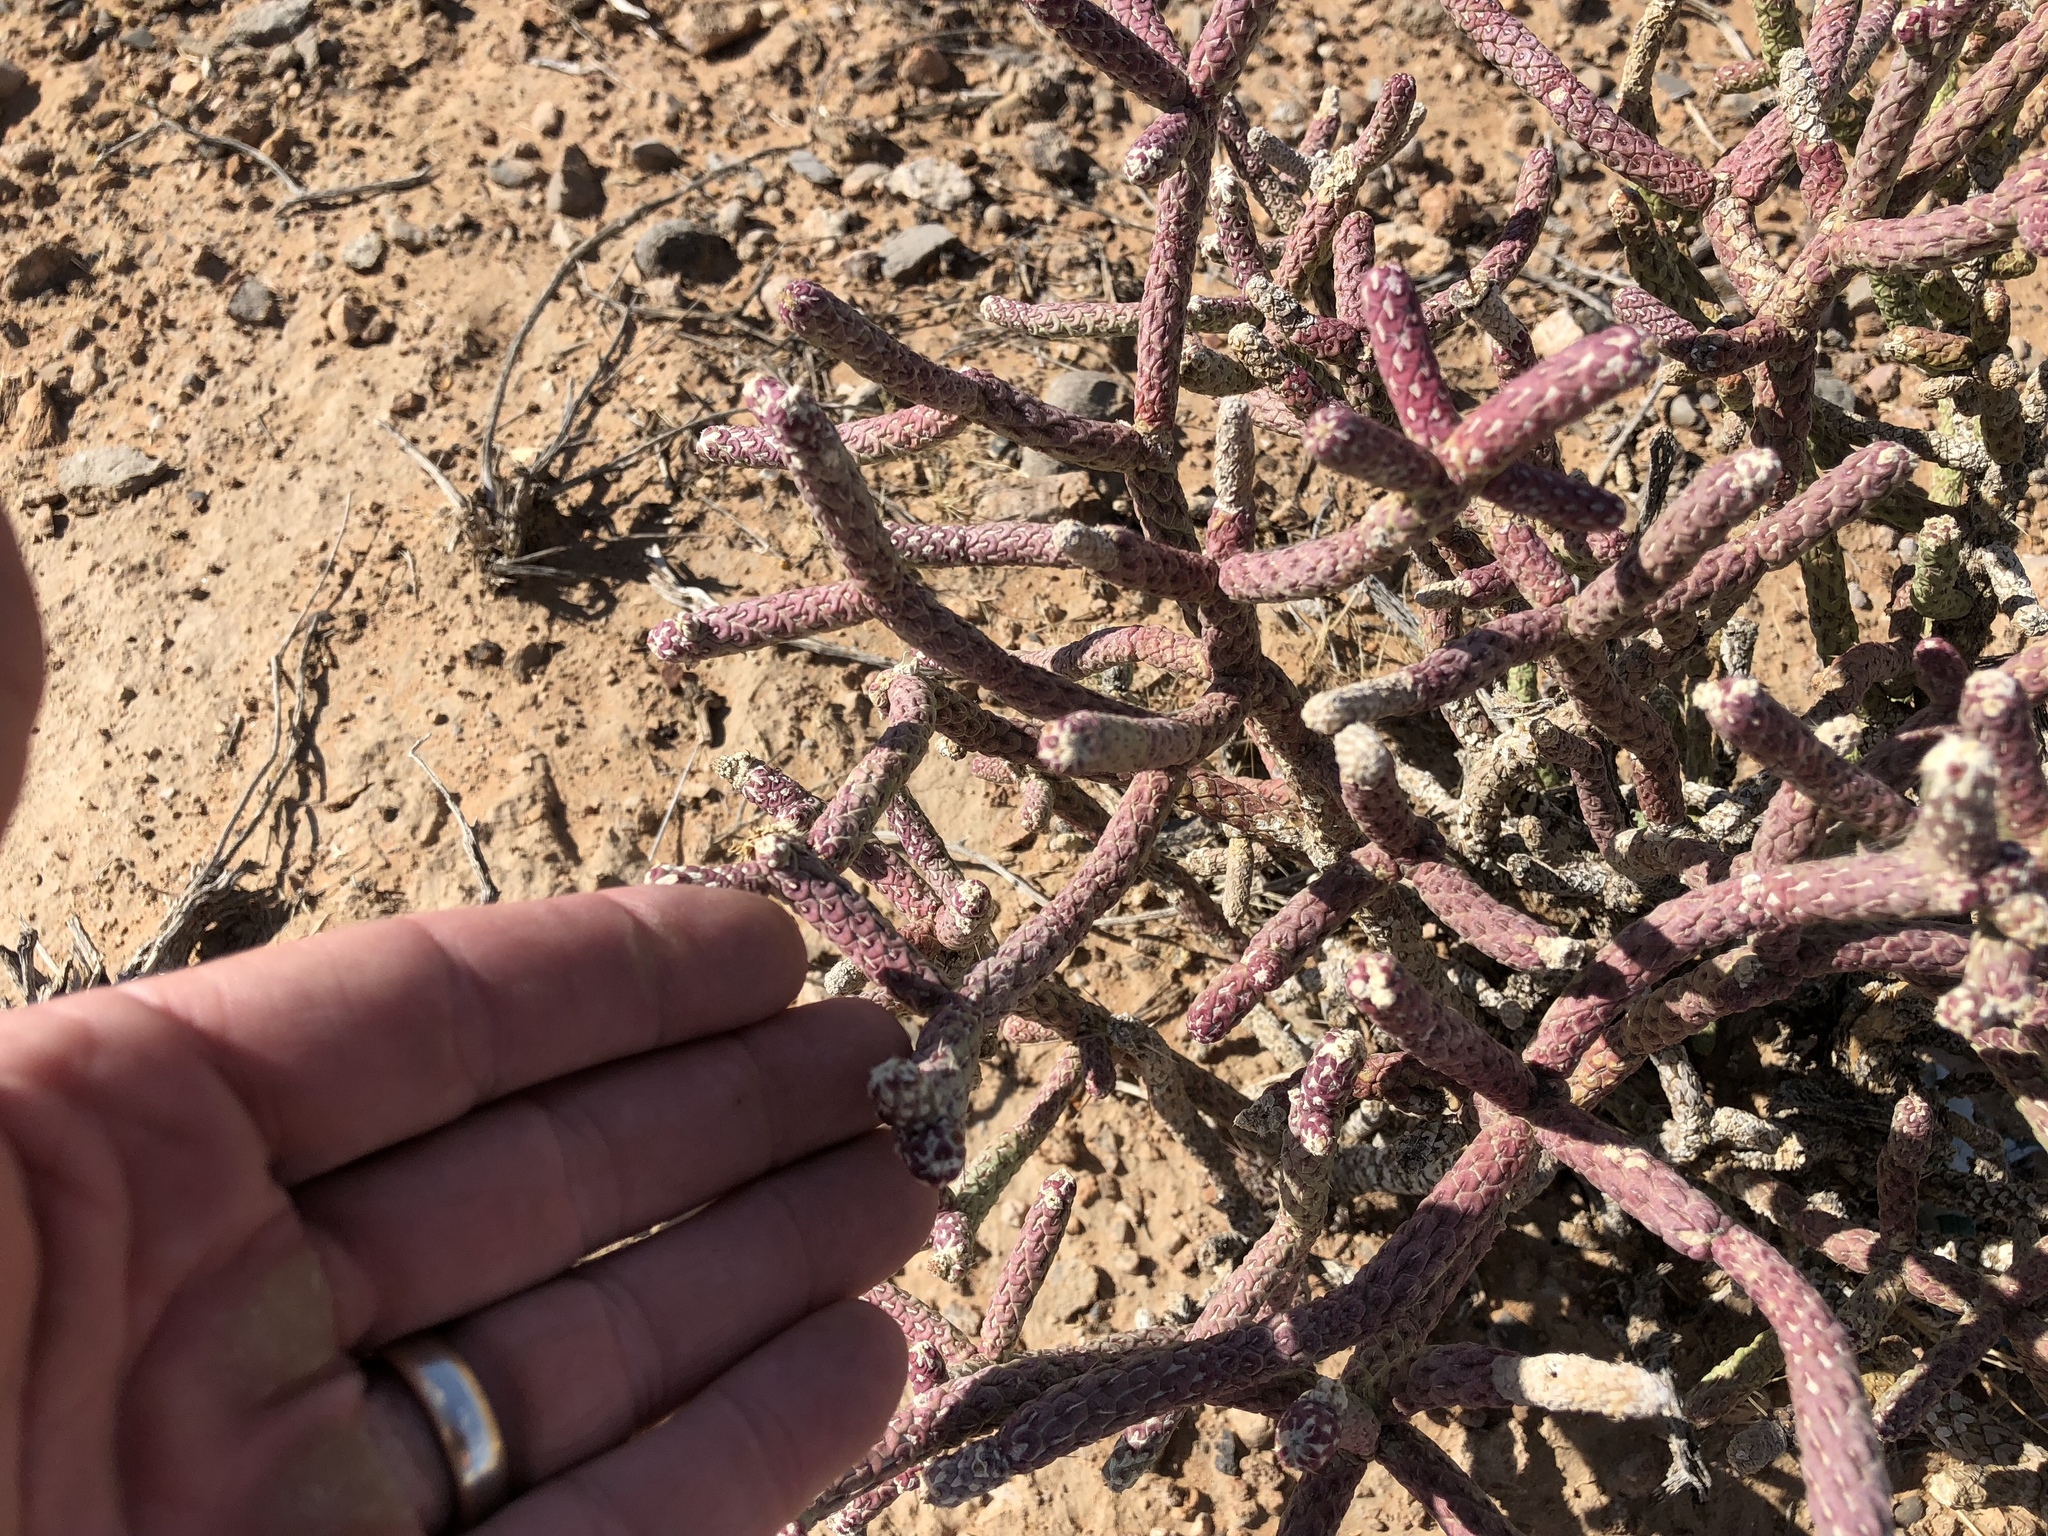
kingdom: Plantae
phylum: Tracheophyta
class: Magnoliopsida
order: Caryophyllales
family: Cactaceae
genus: Cylindropuntia
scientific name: Cylindropuntia ramosissima
